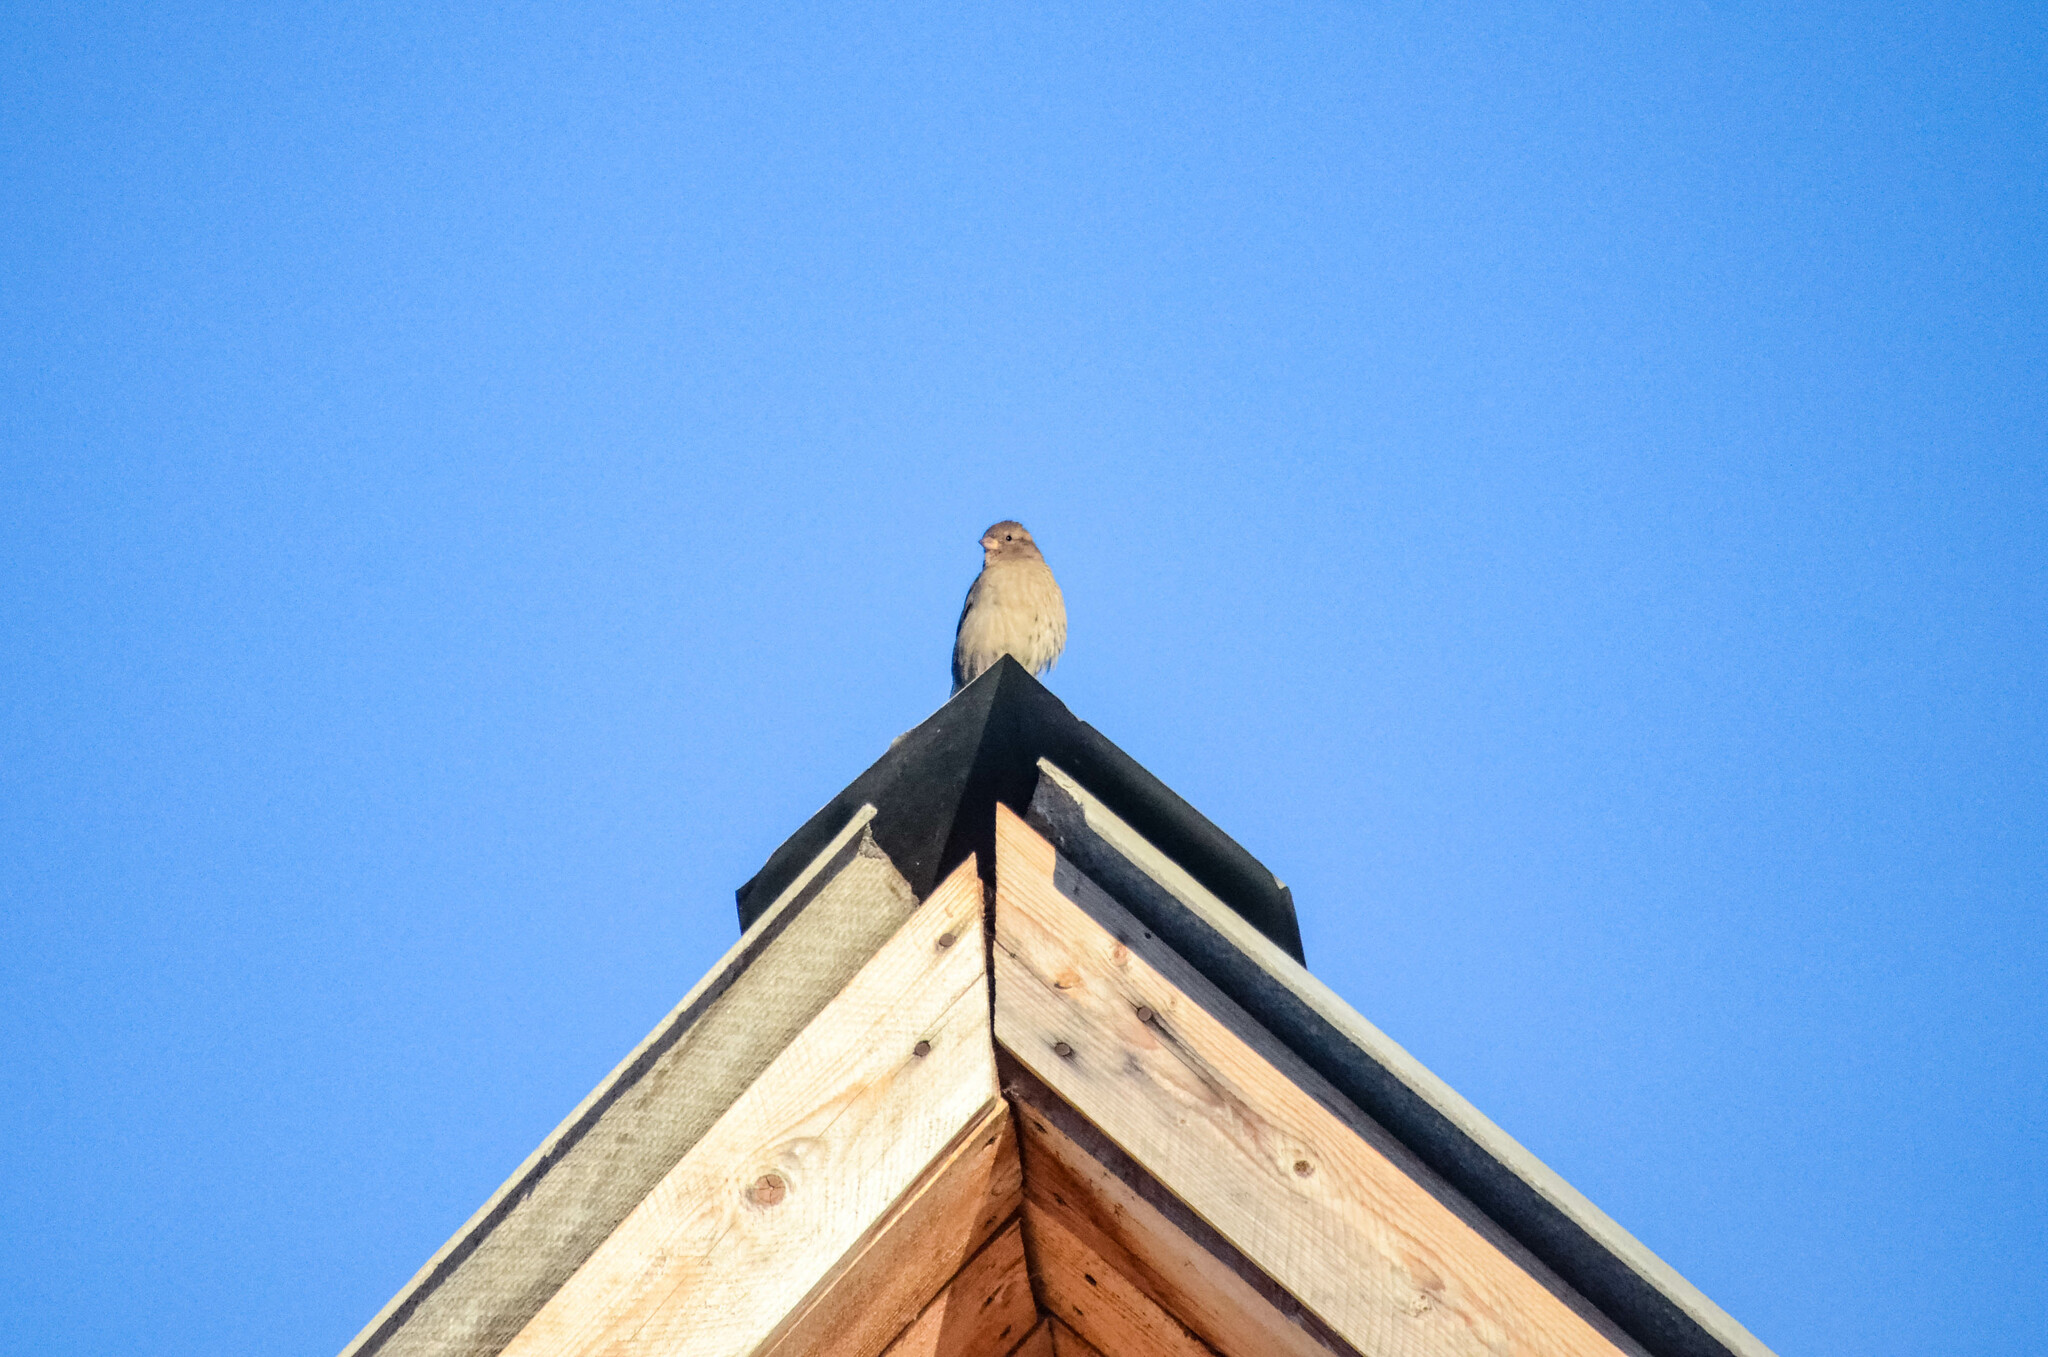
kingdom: Animalia
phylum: Chordata
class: Aves
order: Passeriformes
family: Passeridae
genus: Passer
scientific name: Passer domesticus
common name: House sparrow
